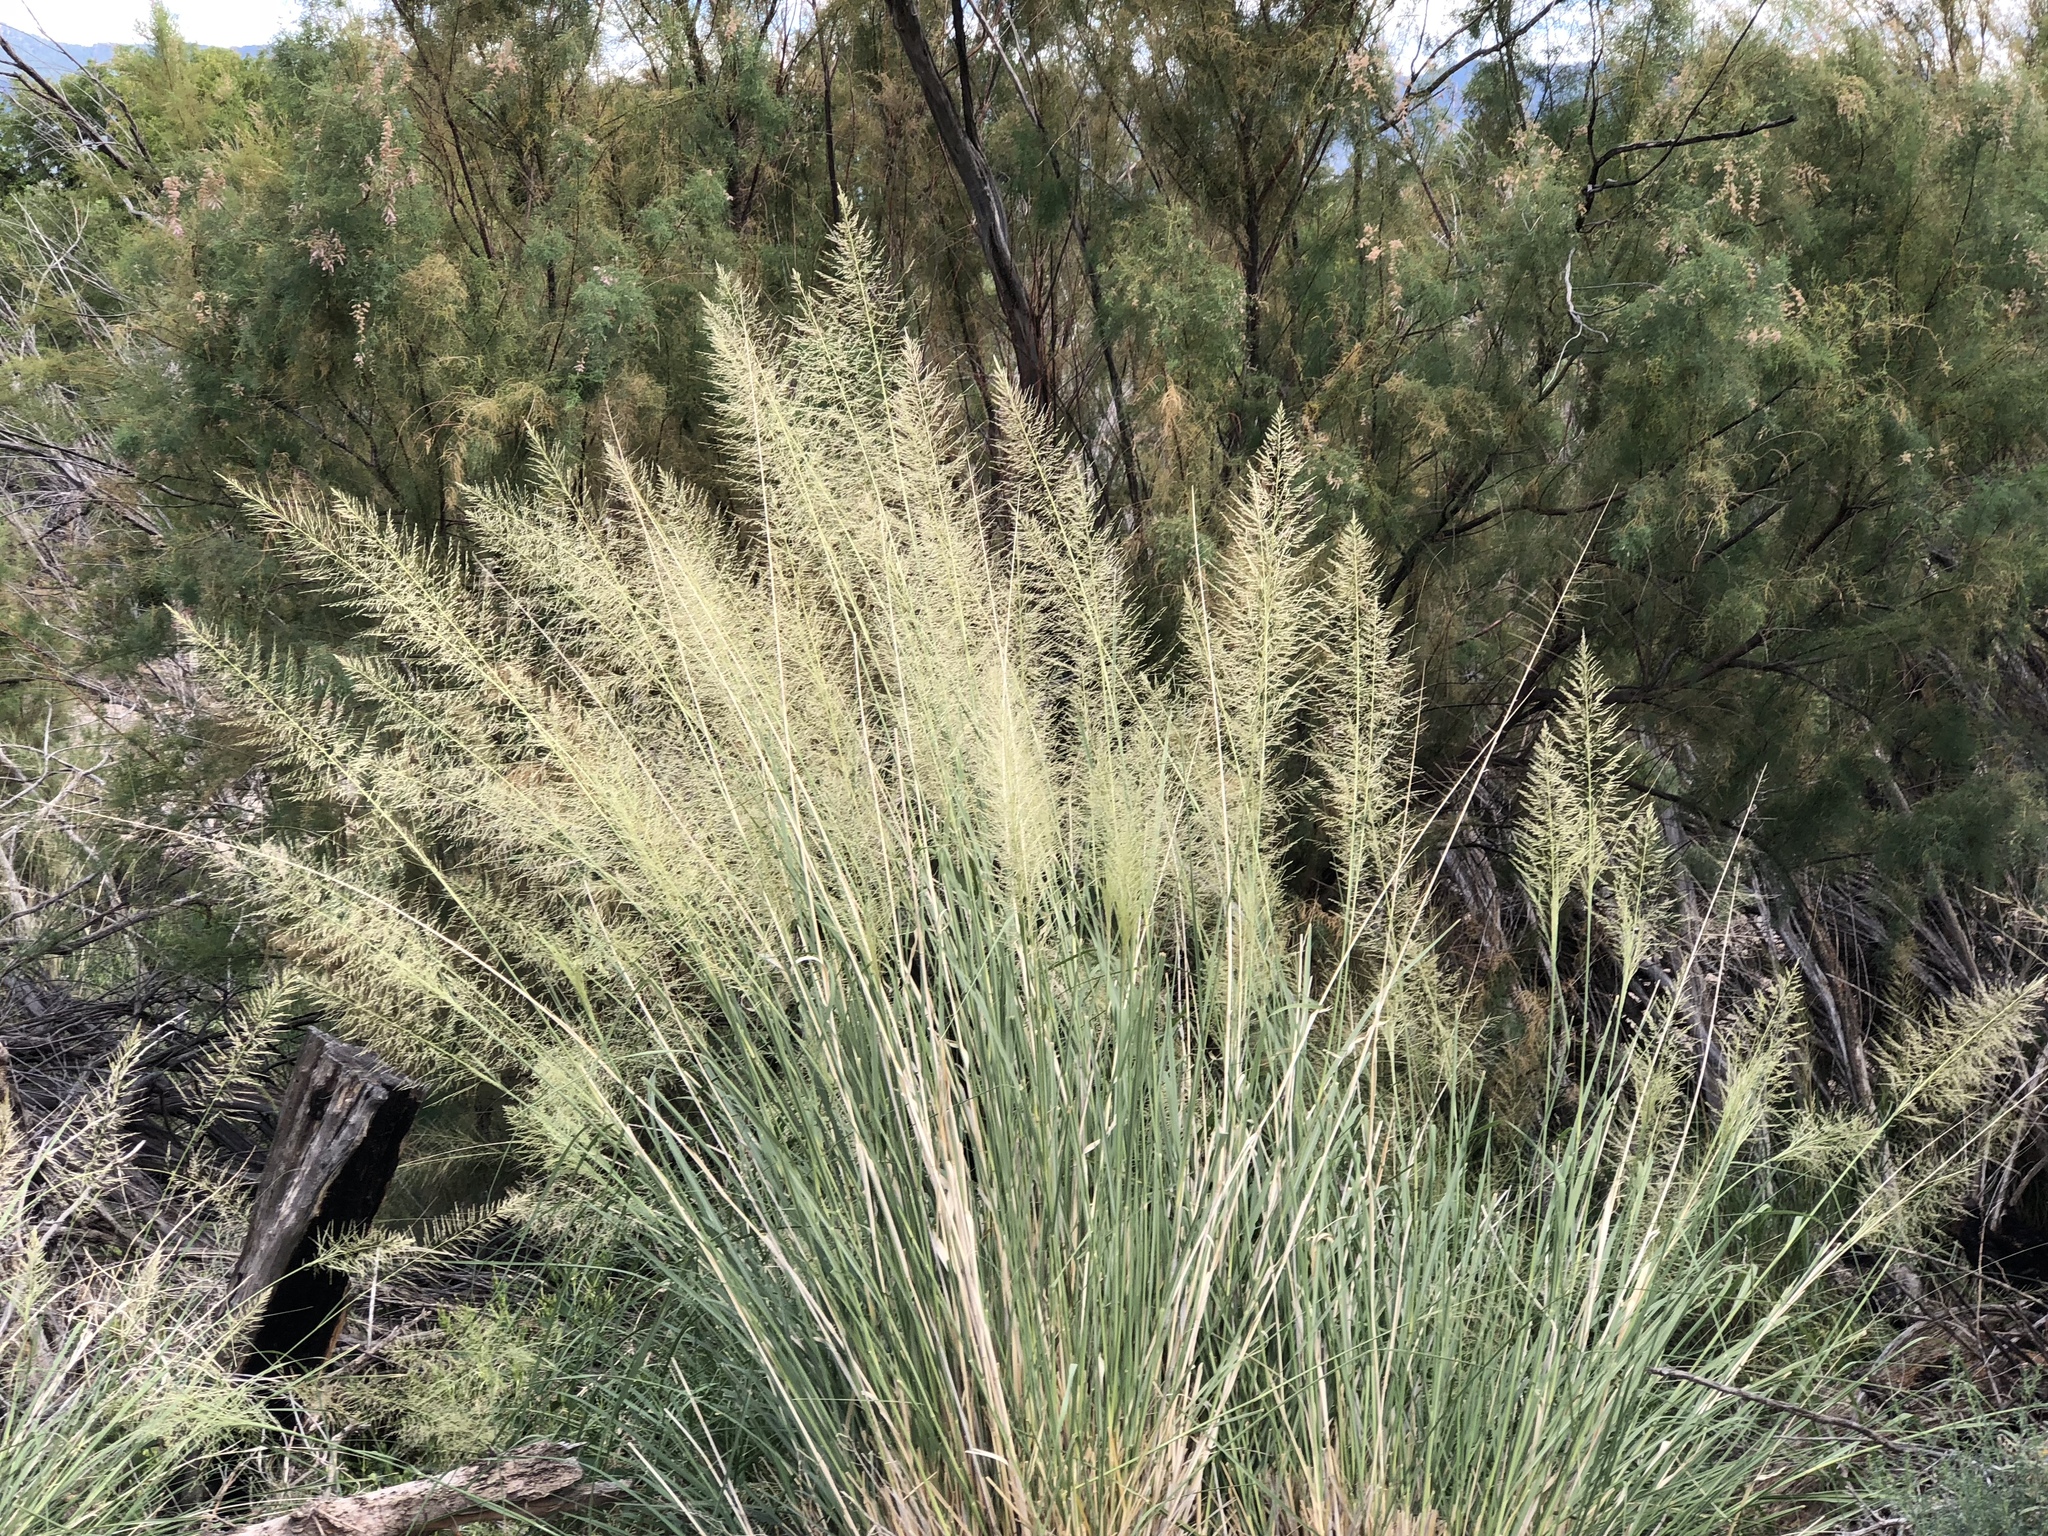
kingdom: Plantae
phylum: Tracheophyta
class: Liliopsida
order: Poales
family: Poaceae
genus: Sporobolus
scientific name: Sporobolus wrightii
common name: Big alkali sacaton
